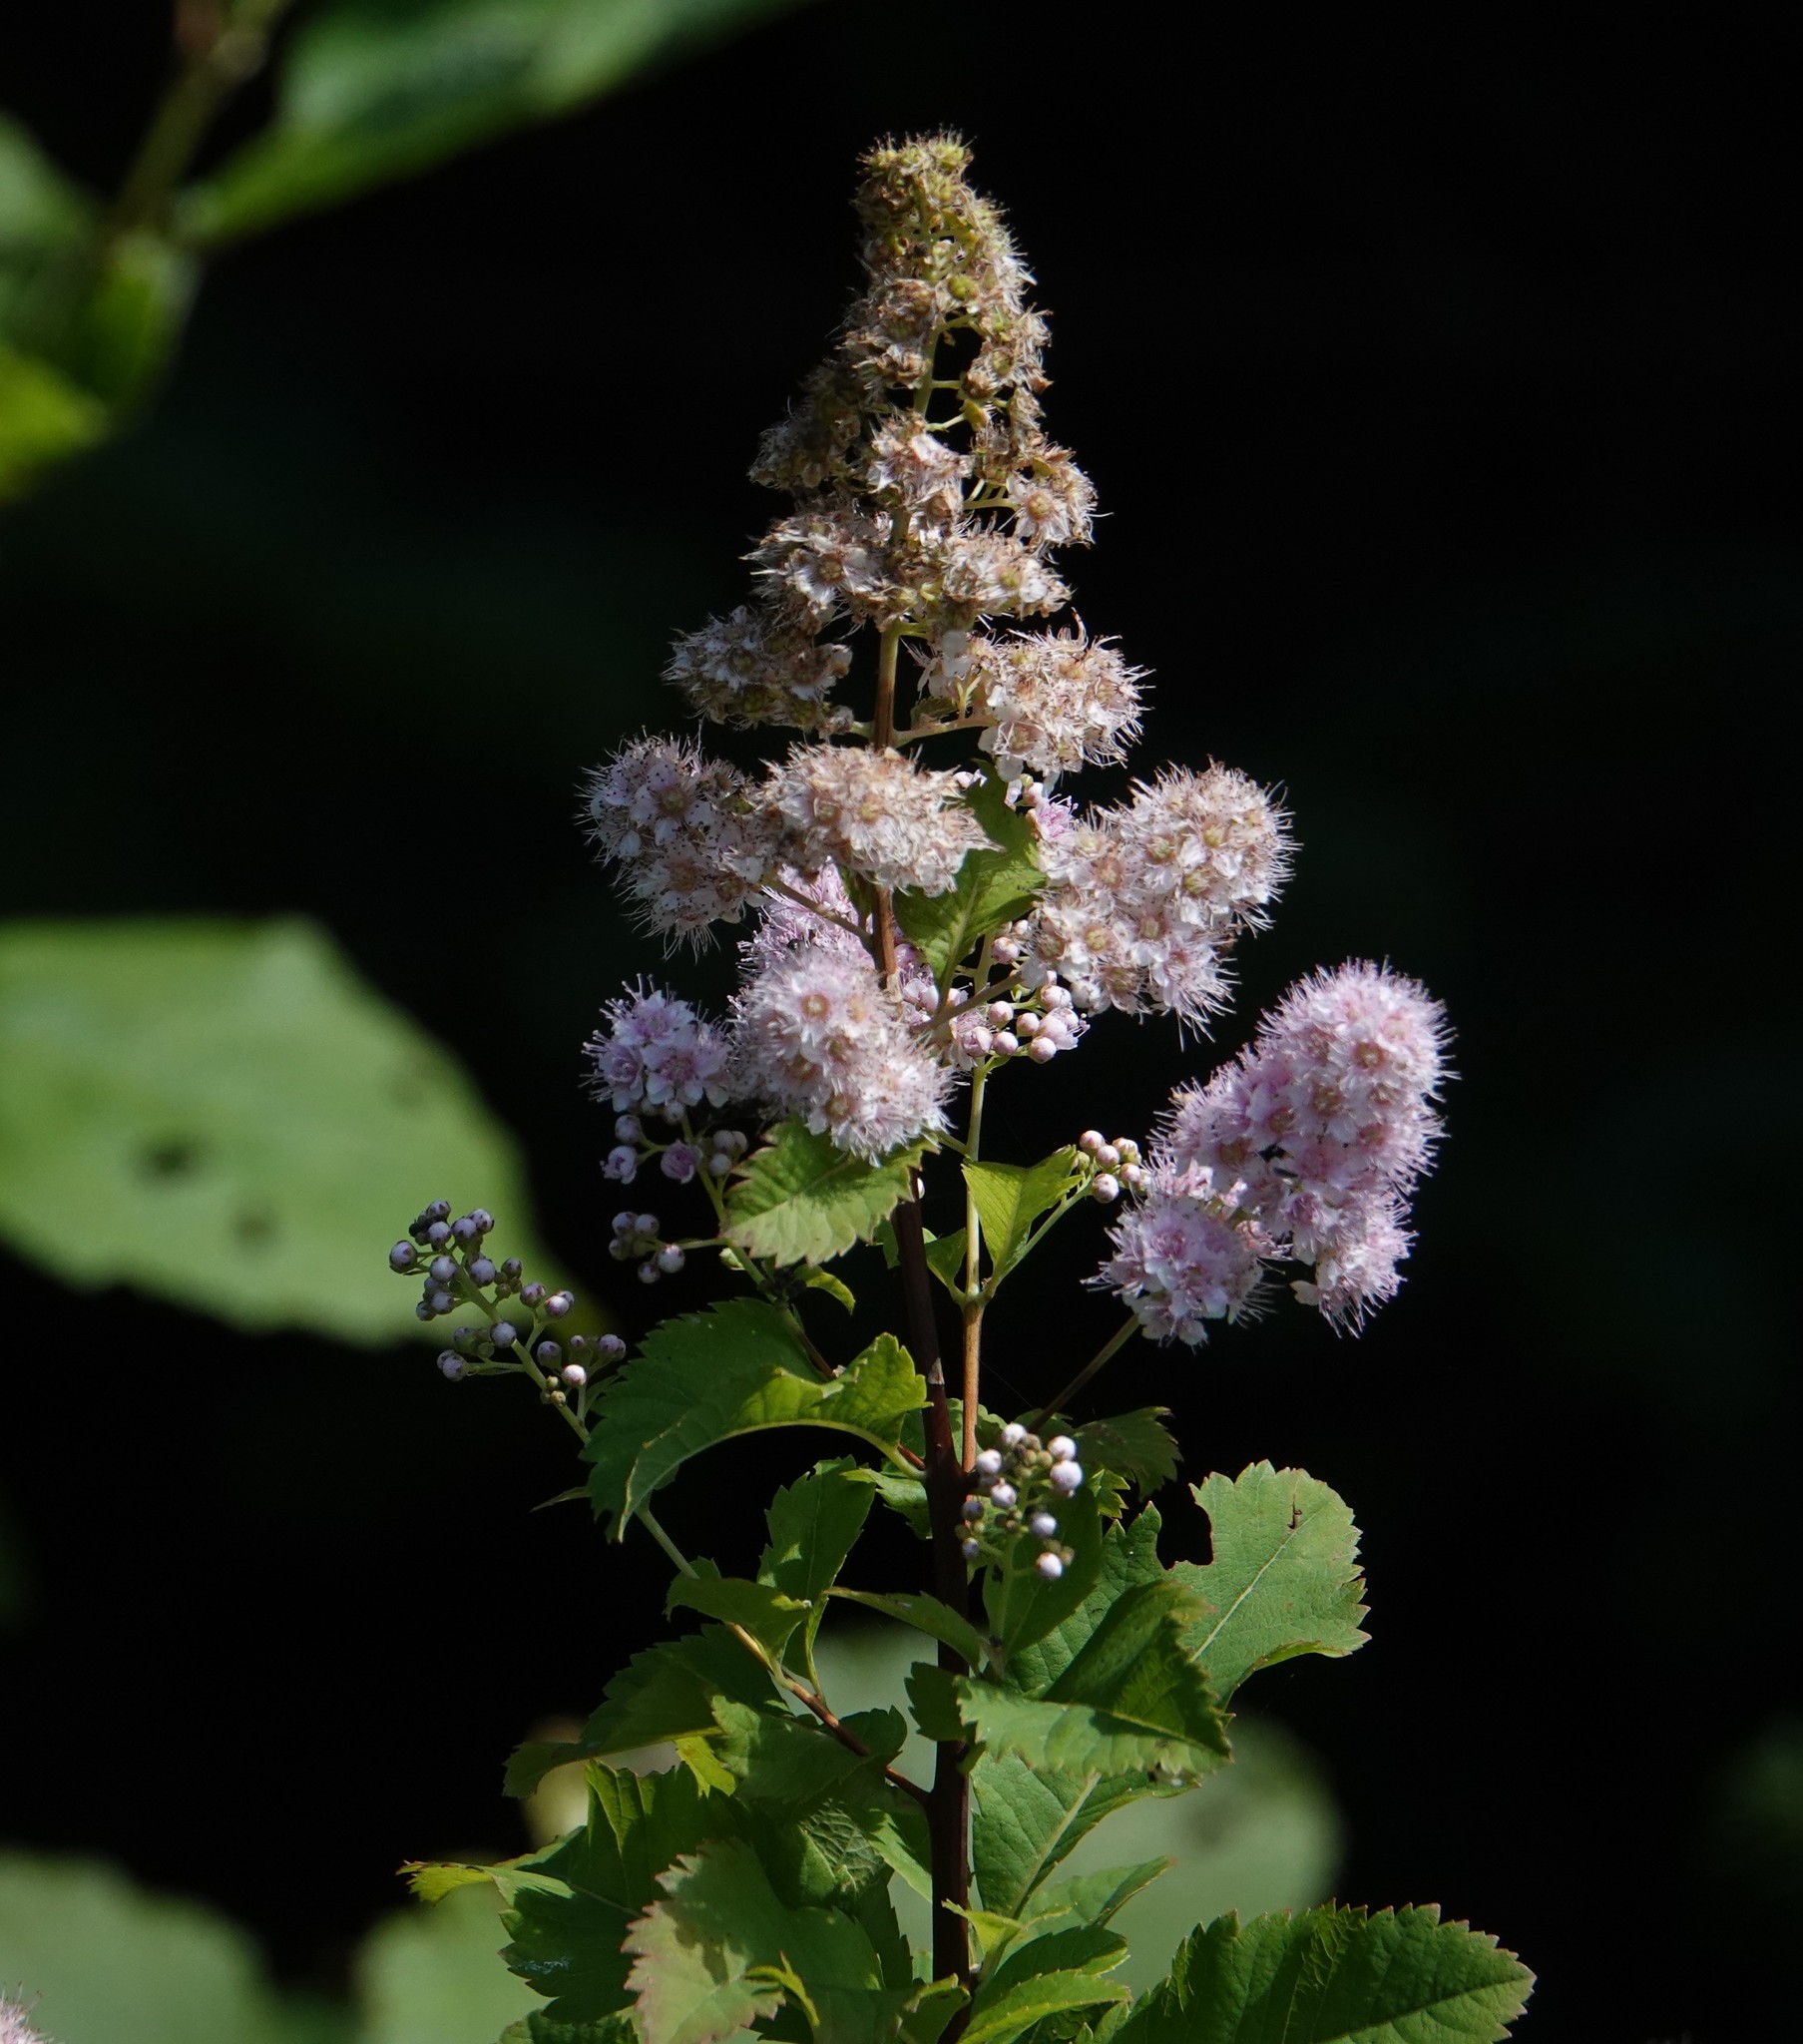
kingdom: Plantae
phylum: Tracheophyta
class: Magnoliopsida
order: Rosales
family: Rosaceae
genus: Spiraea
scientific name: Spiraea alba
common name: Pale bridewort
